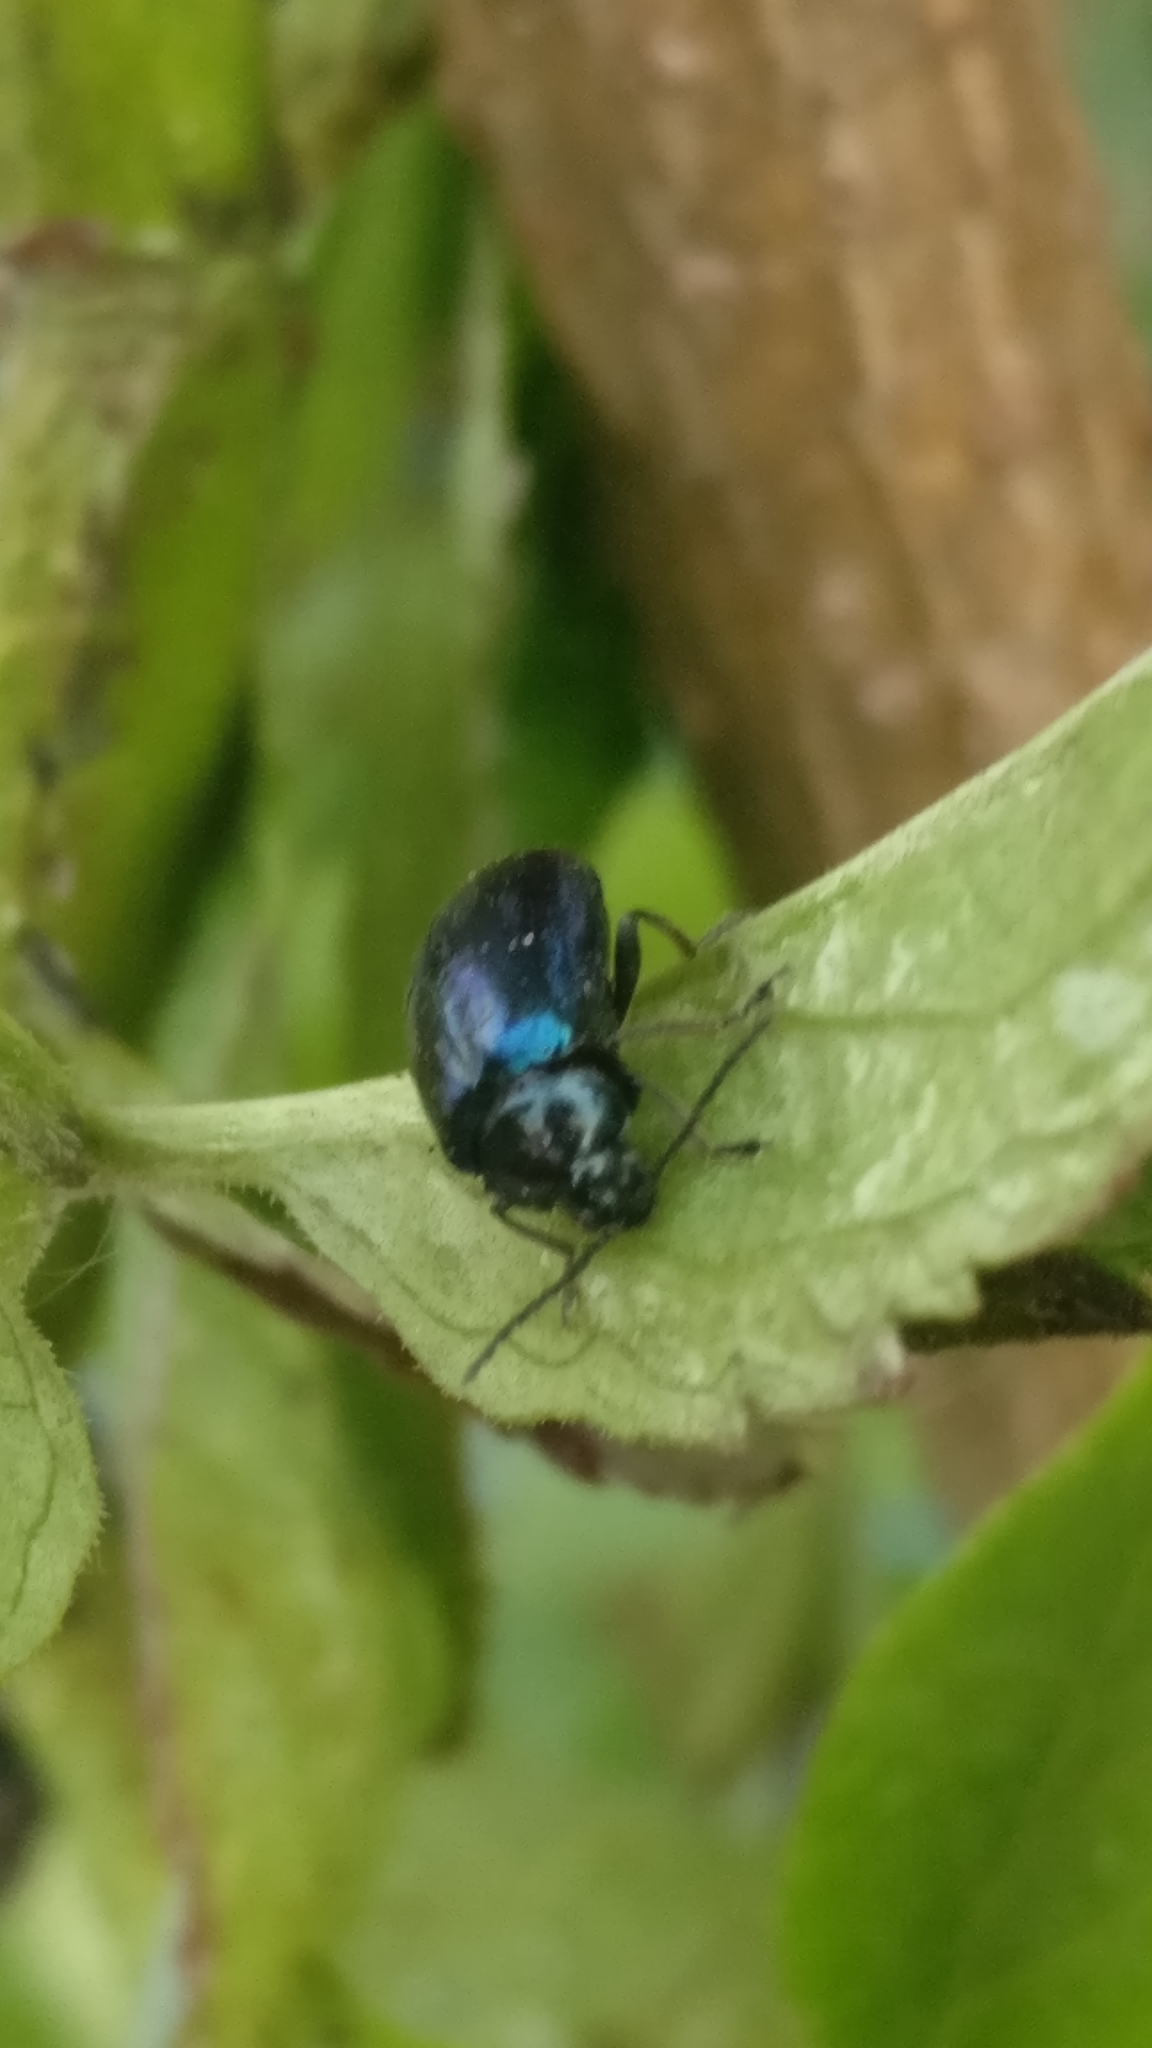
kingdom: Animalia
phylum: Arthropoda
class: Insecta
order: Coleoptera
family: Chrysomelidae
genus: Agelastica
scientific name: Agelastica alni
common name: Alder leaf beetle
